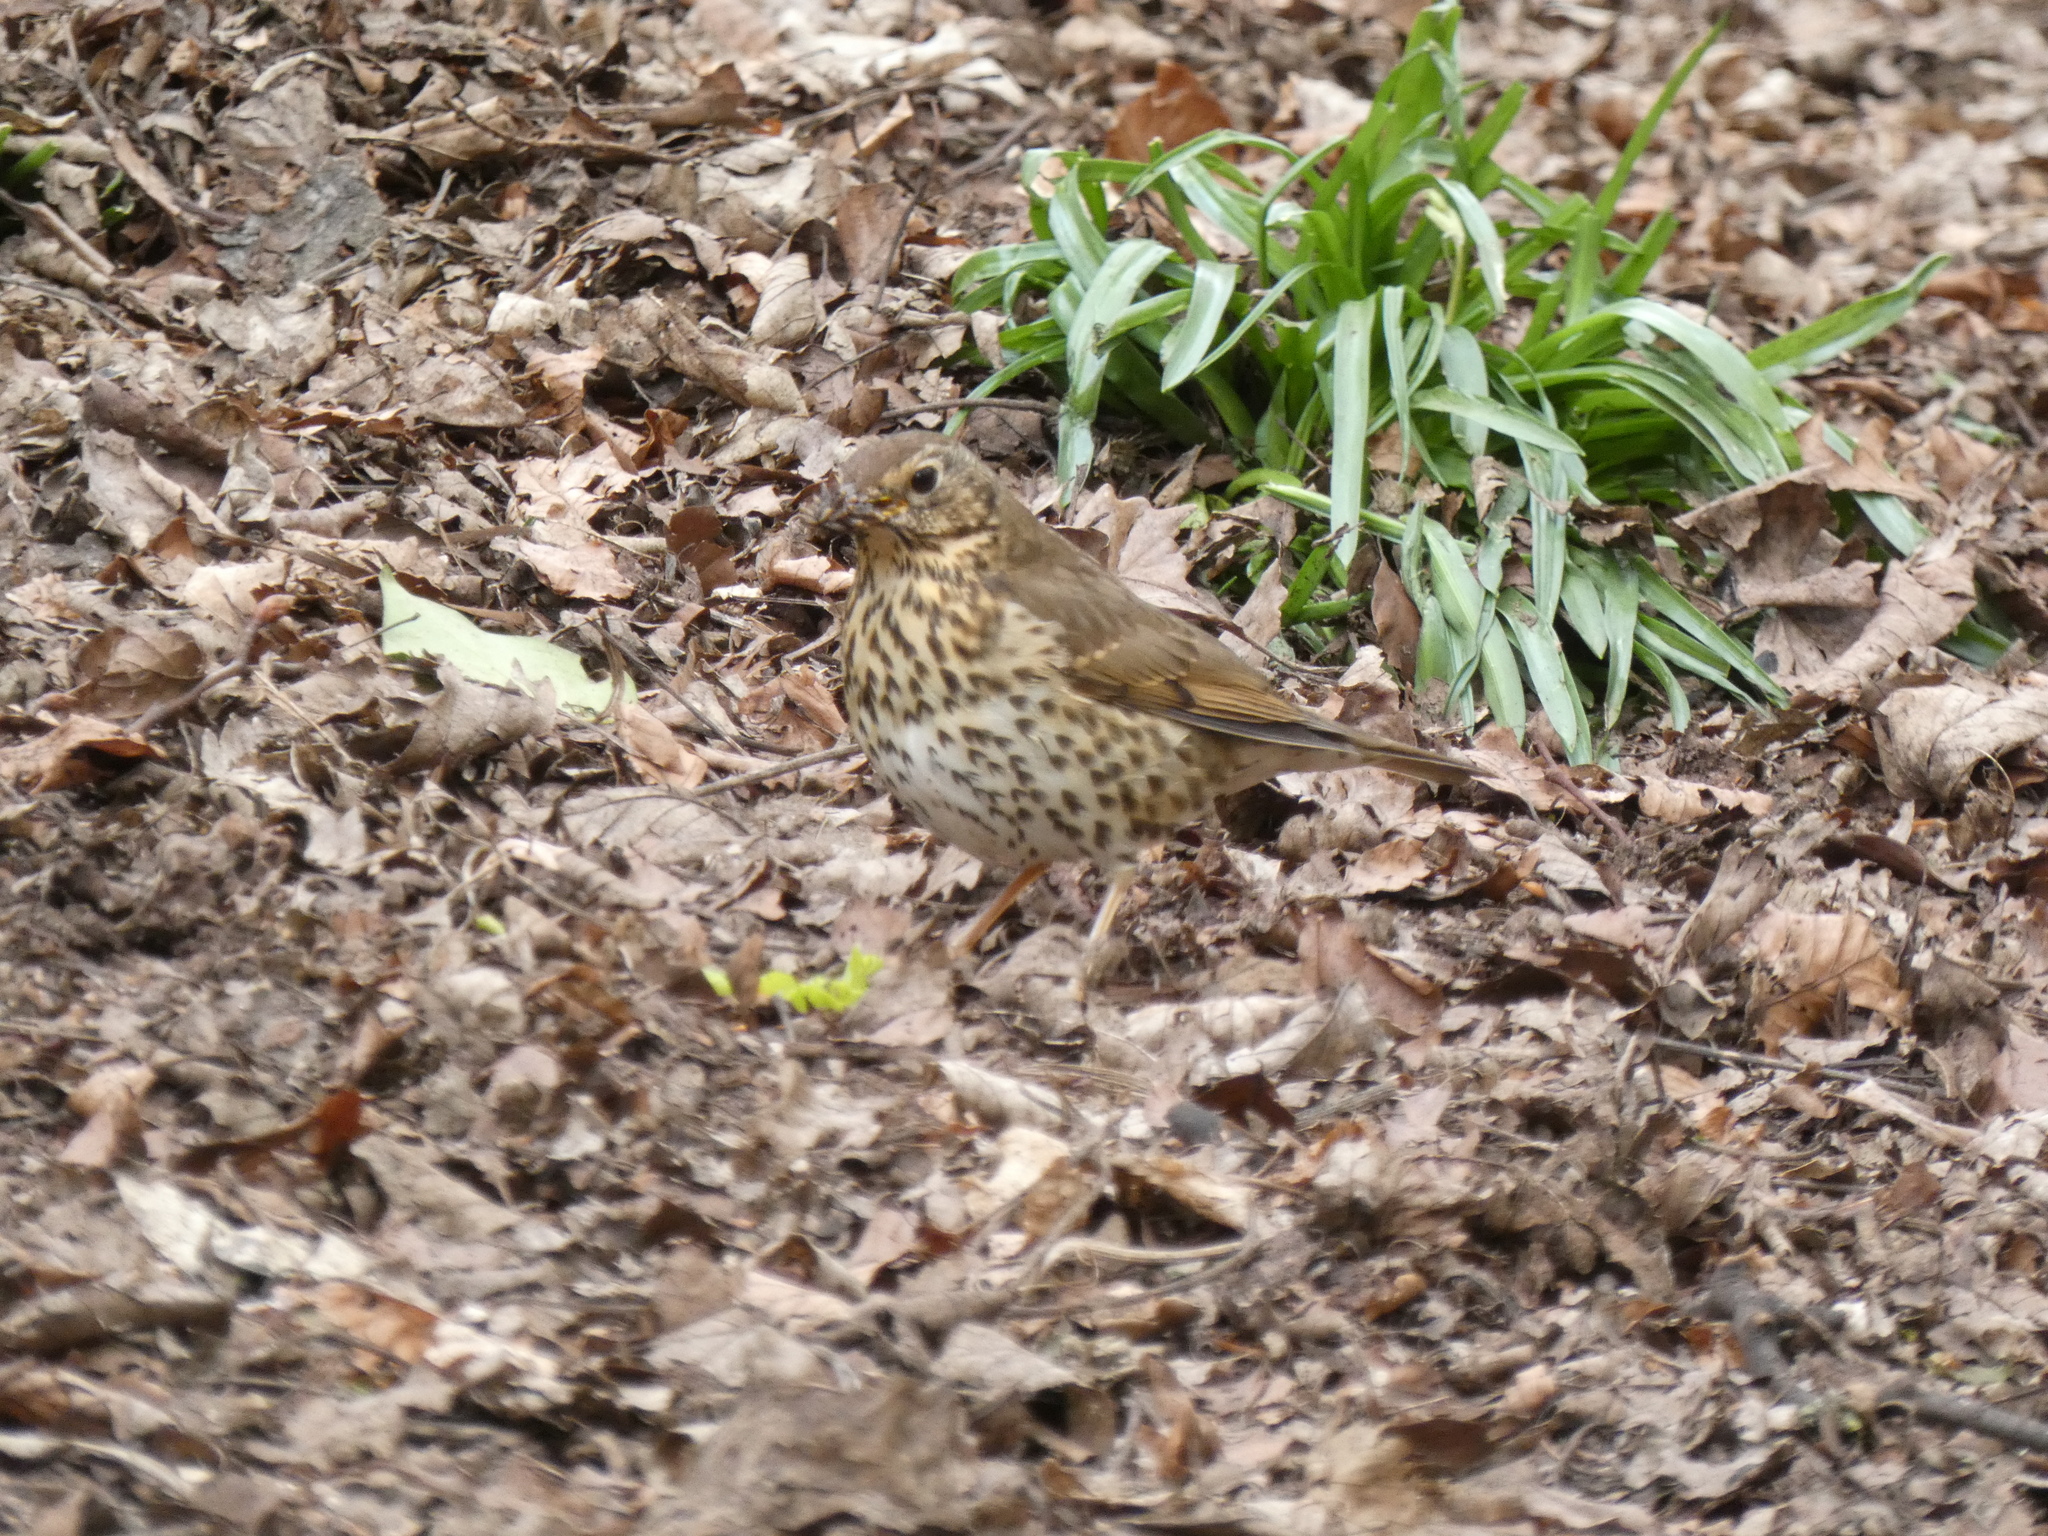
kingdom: Animalia
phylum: Chordata
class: Aves
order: Passeriformes
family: Turdidae
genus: Turdus
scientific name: Turdus philomelos
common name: Song thrush
